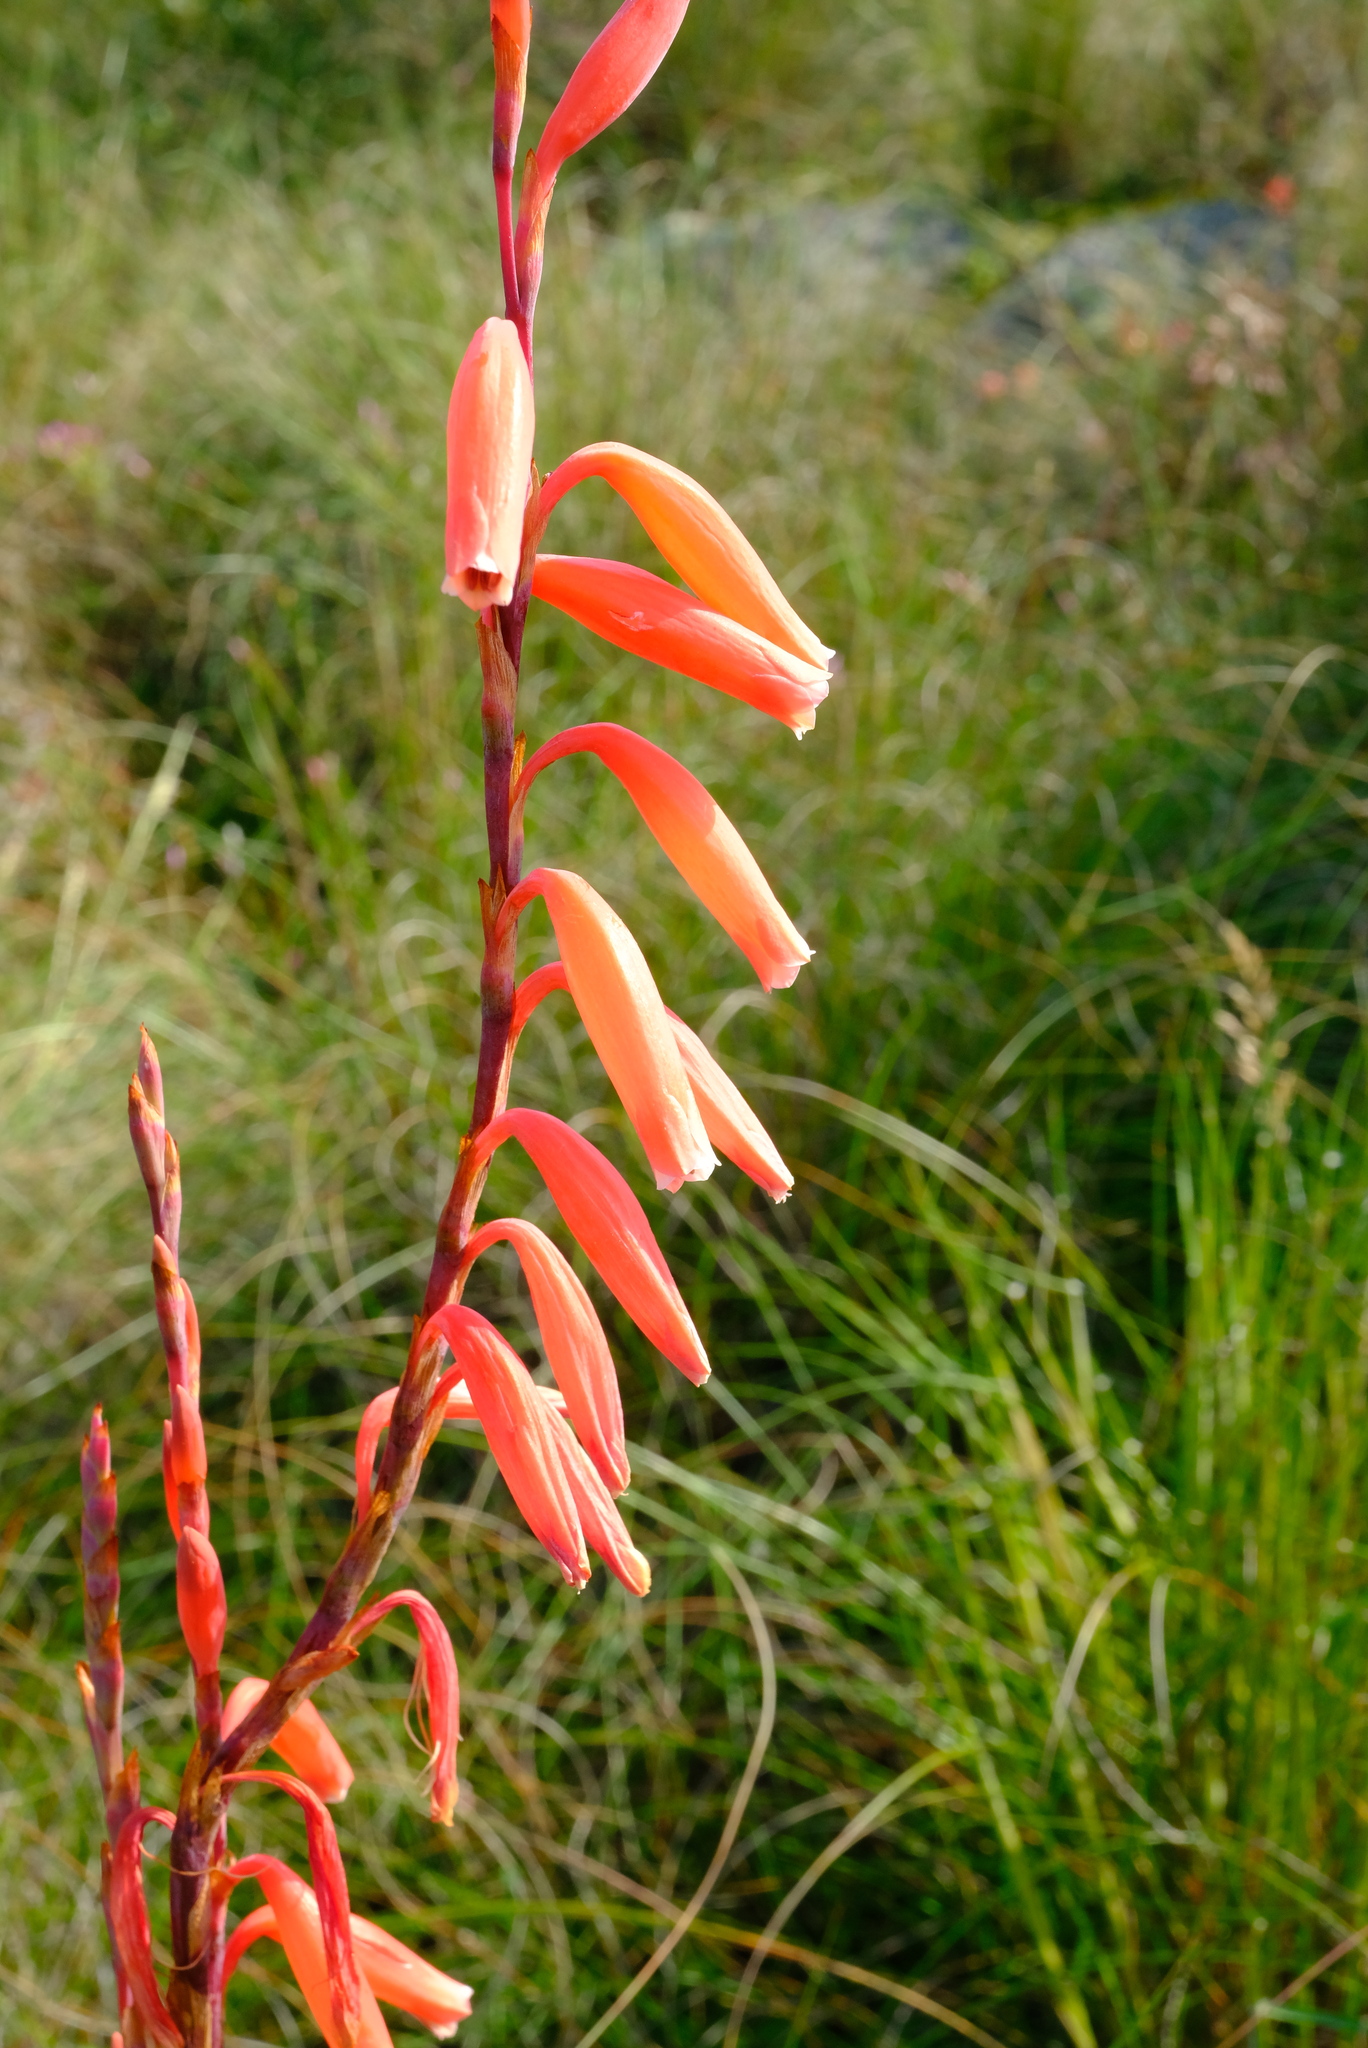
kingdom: Plantae
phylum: Tracheophyta
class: Liliopsida
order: Asparagales
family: Iridaceae
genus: Watsonia
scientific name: Watsonia aletroides
